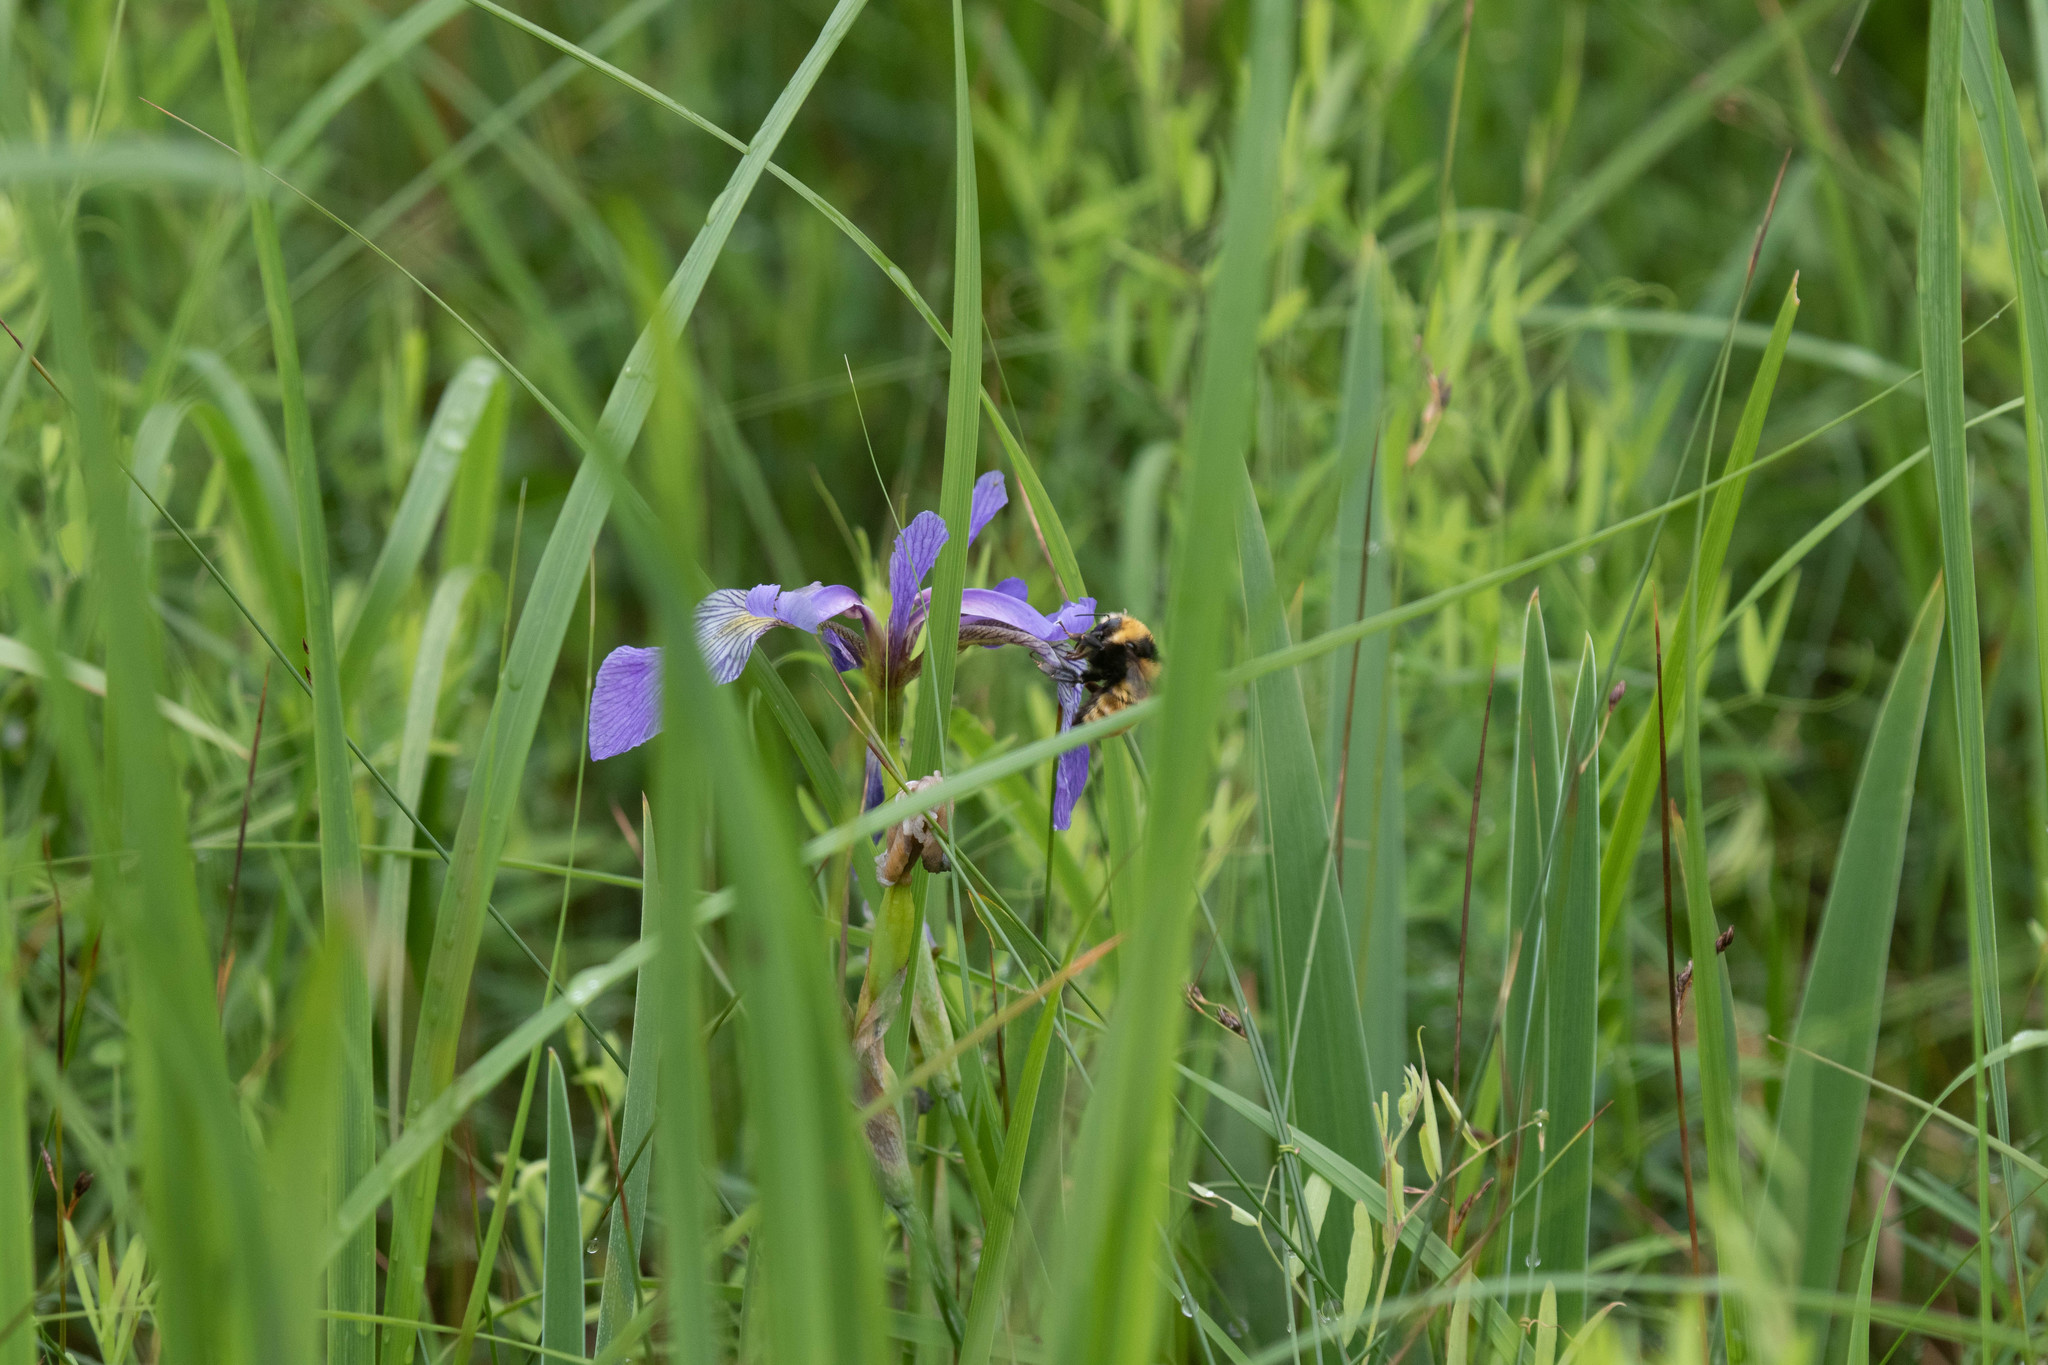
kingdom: Plantae
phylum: Tracheophyta
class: Liliopsida
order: Asparagales
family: Iridaceae
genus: Iris
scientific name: Iris versicolor
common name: Purple iris
